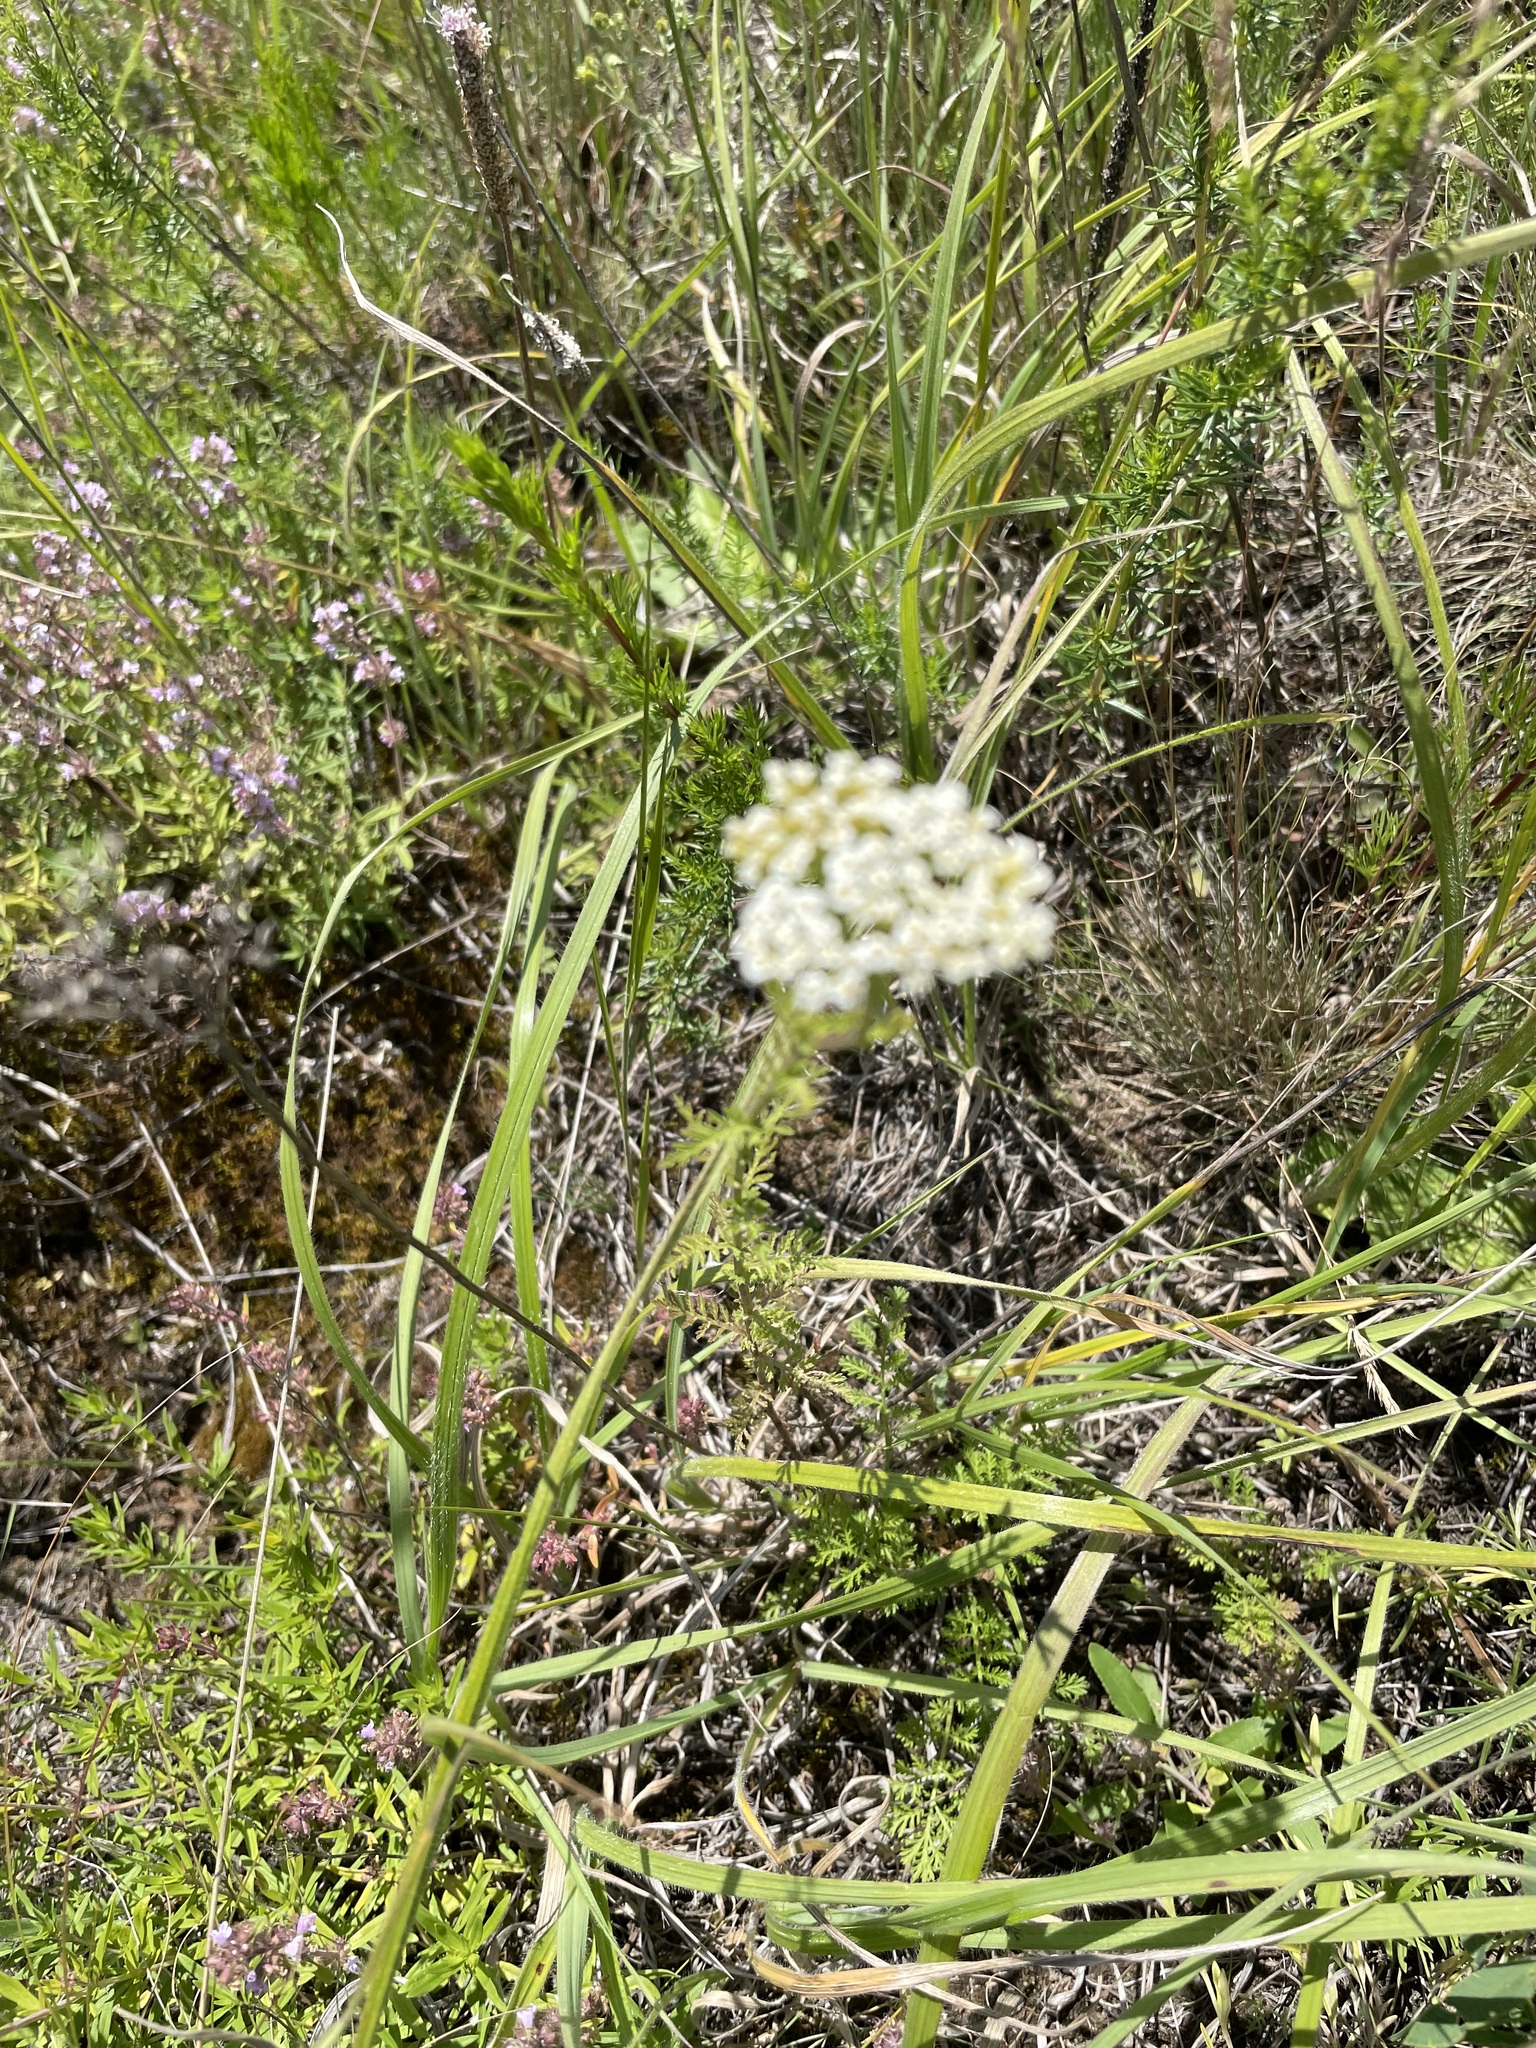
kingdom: Plantae
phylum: Tracheophyta
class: Magnoliopsida
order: Asterales
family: Asteraceae
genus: Achillea
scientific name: Achillea nobilis
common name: Noble yarrow
